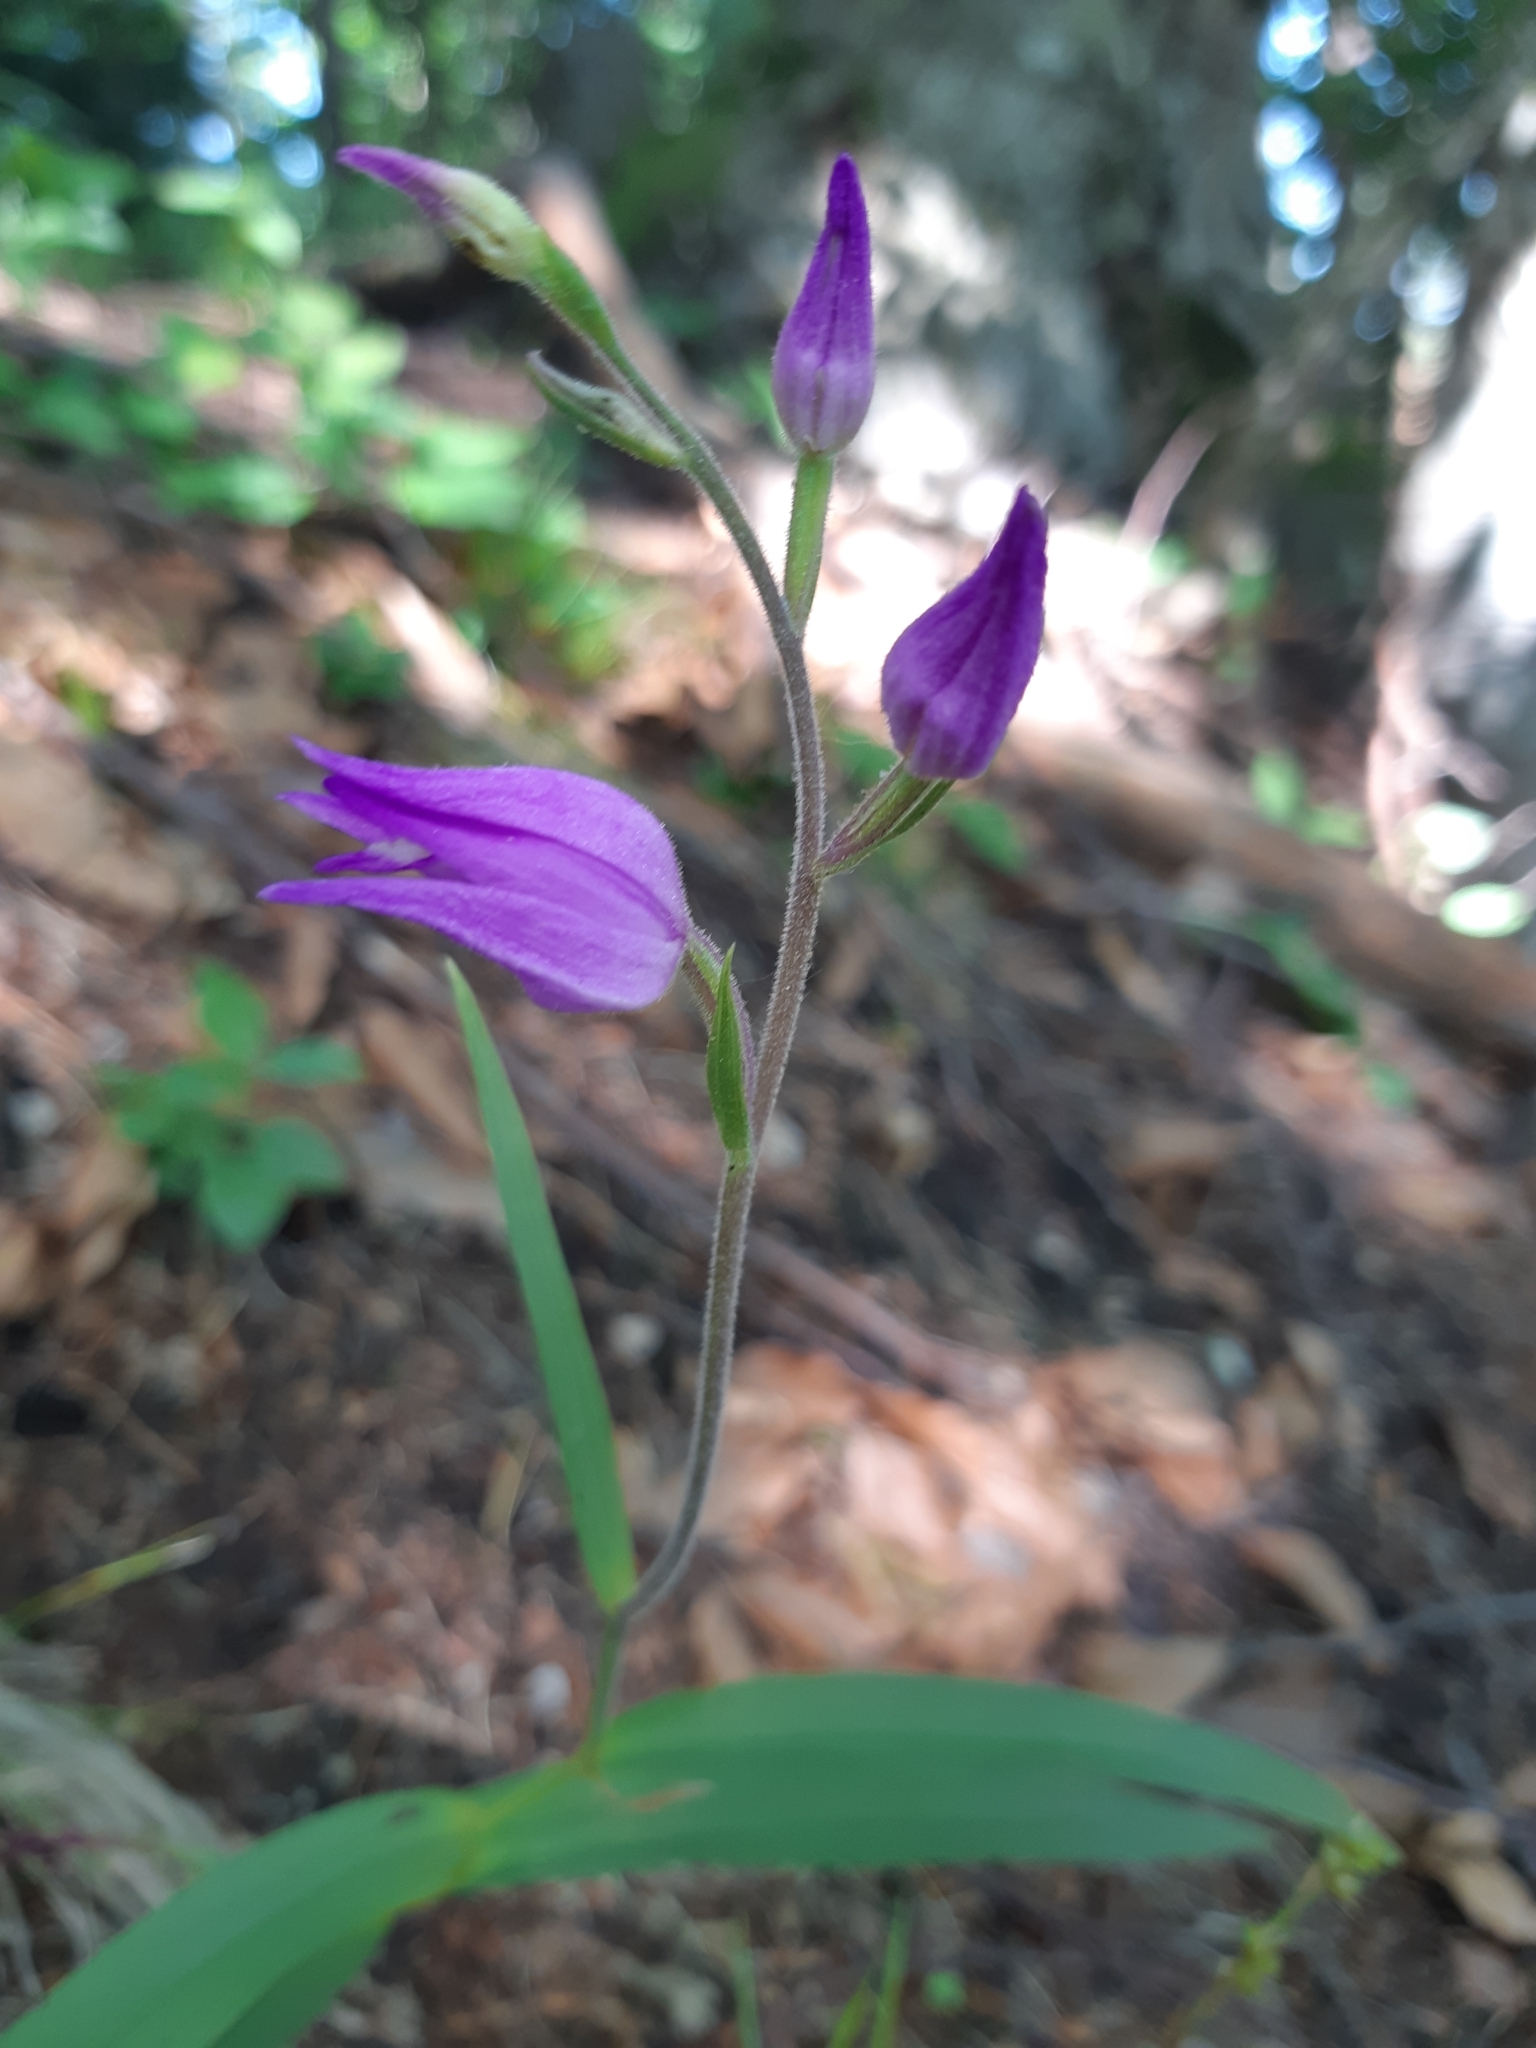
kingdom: Plantae
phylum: Tracheophyta
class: Liliopsida
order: Asparagales
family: Orchidaceae
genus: Cephalanthera
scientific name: Cephalanthera rubra
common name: Red helleborine
